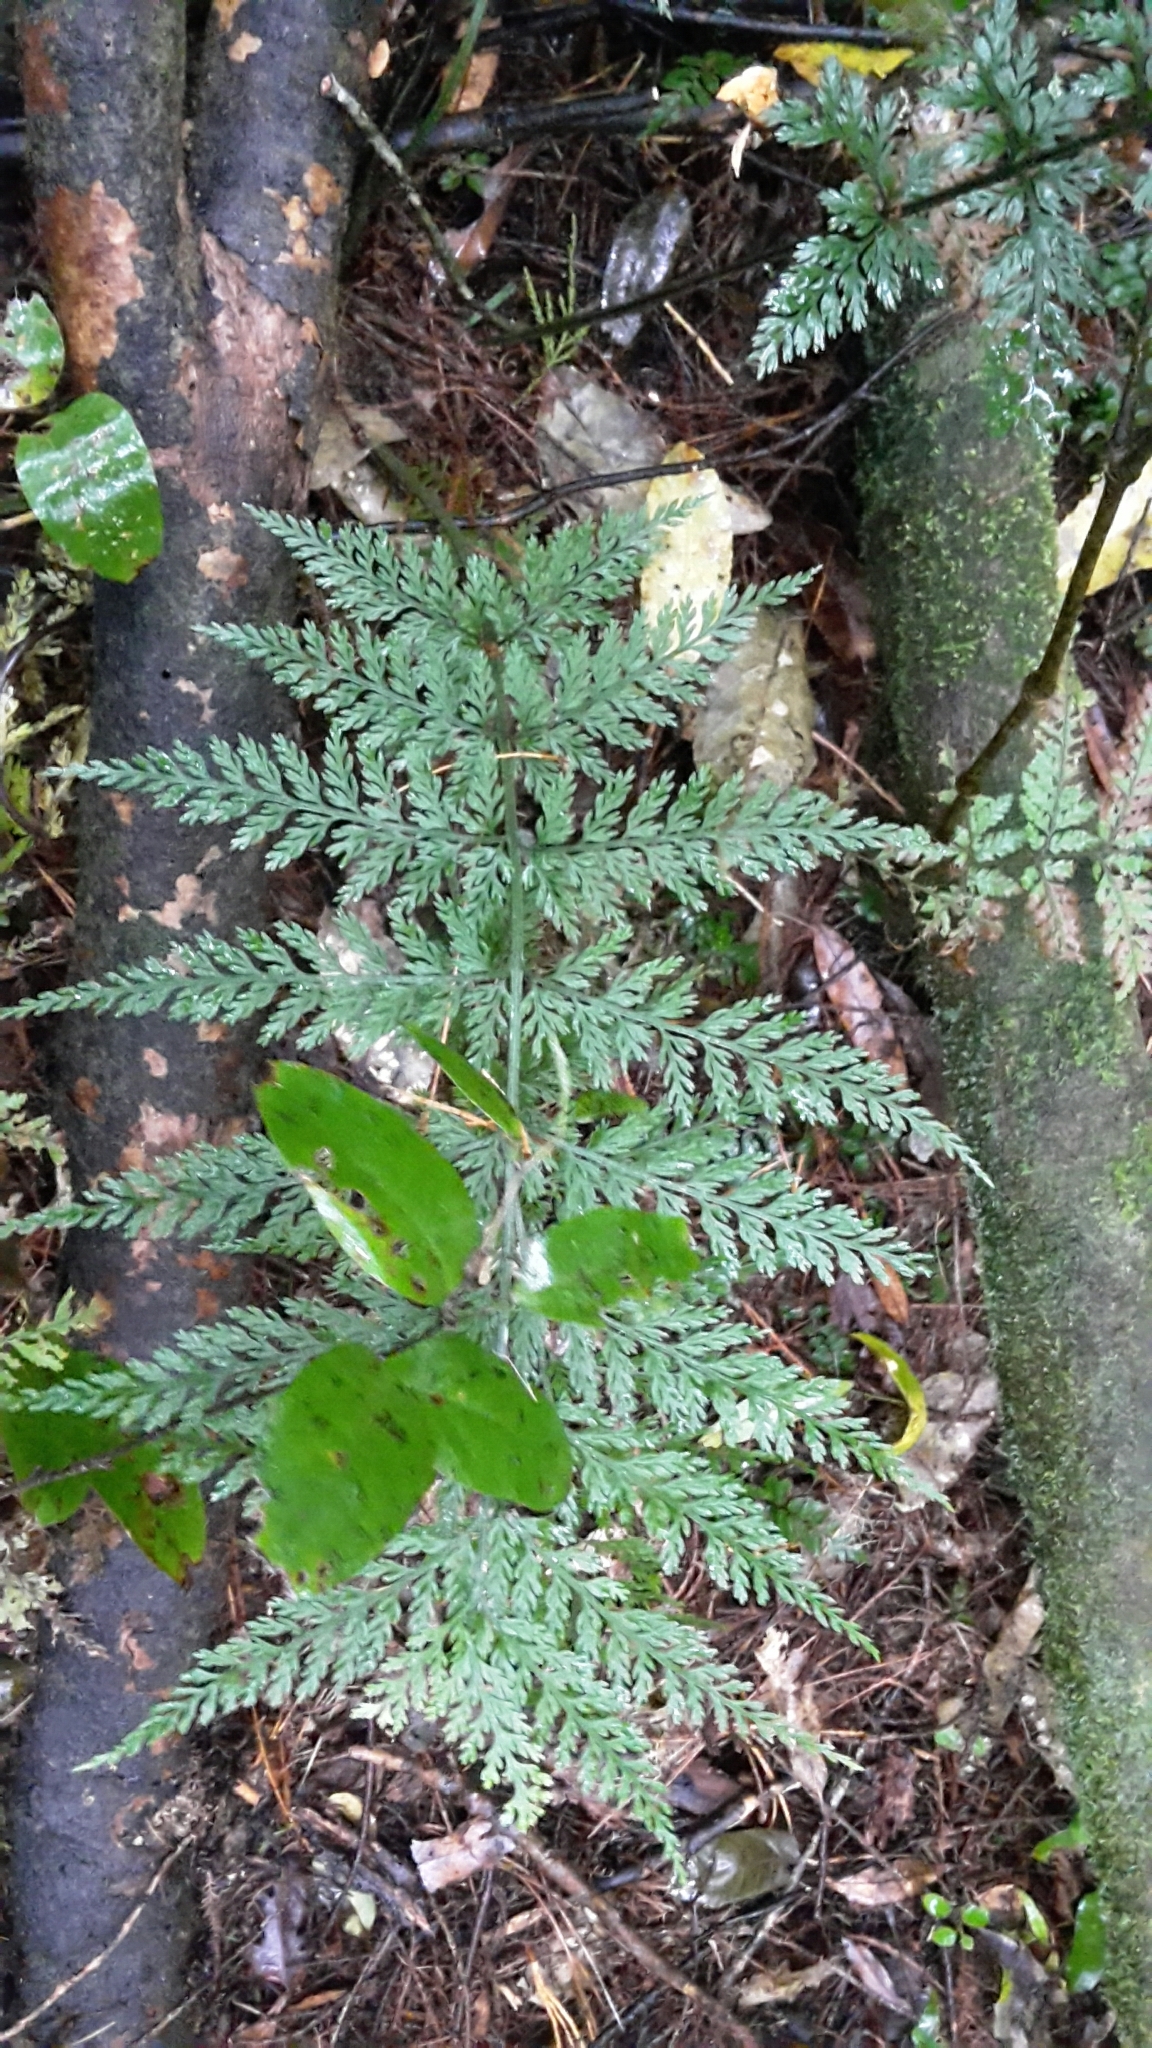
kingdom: Plantae
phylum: Tracheophyta
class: Polypodiopsida
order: Polypodiales
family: Aspleniaceae
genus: Asplenium
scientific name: Asplenium
